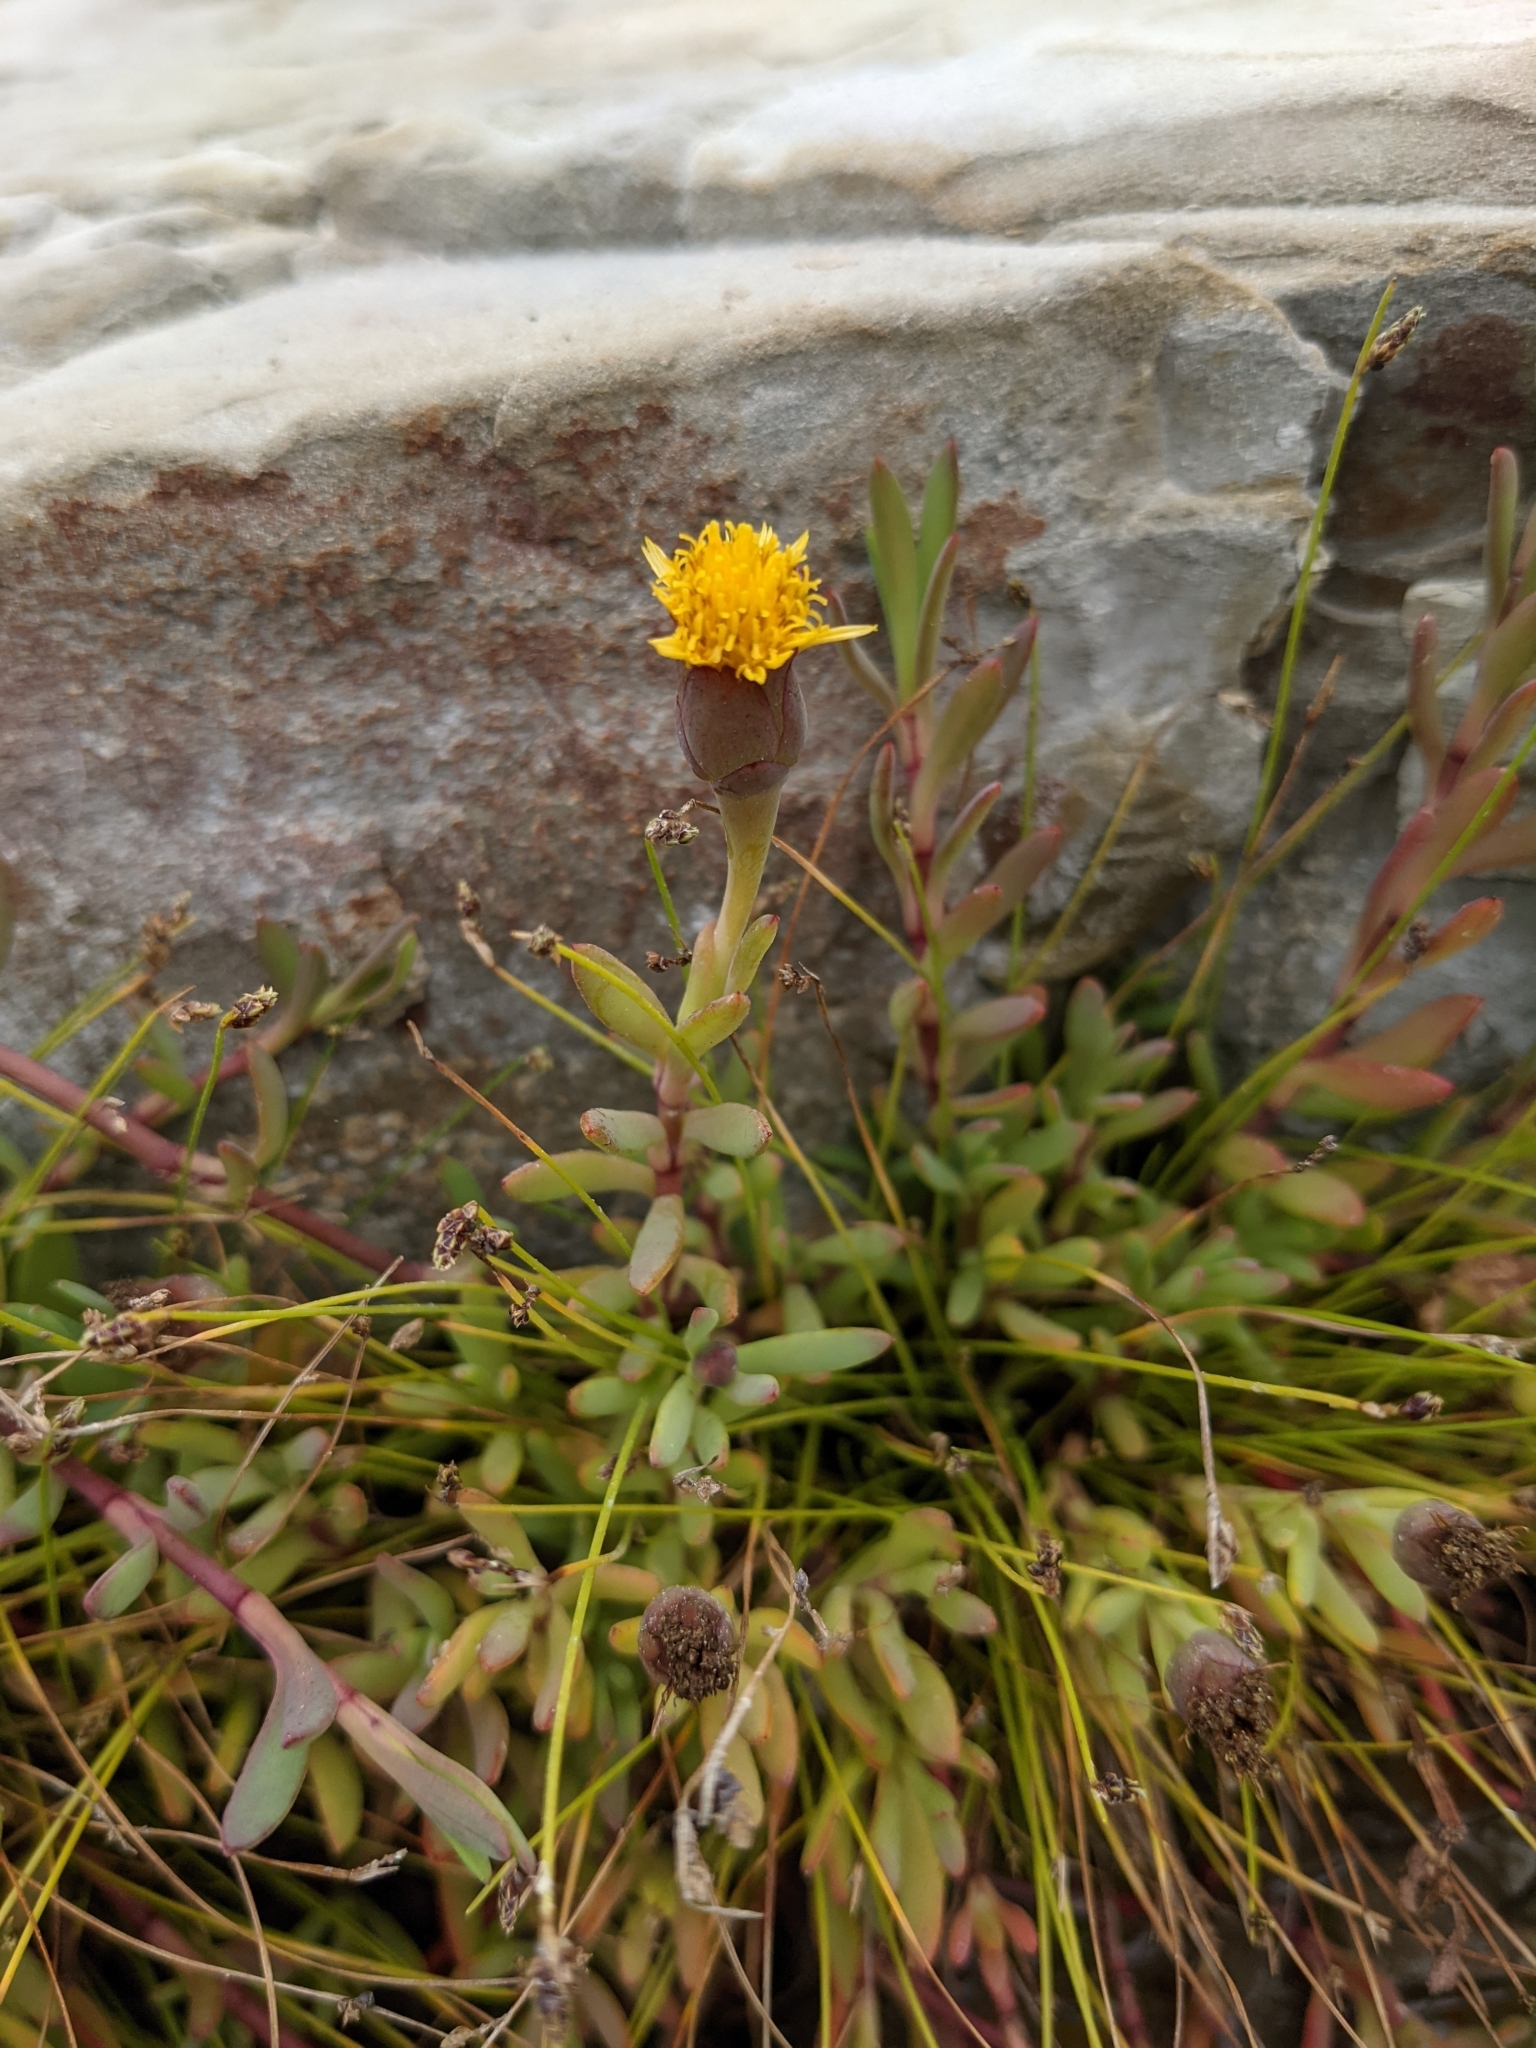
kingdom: Plantae
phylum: Tracheophyta
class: Magnoliopsida
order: Asterales
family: Asteraceae
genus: Jaumea
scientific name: Jaumea carnosa
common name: Fleshy jaumea
